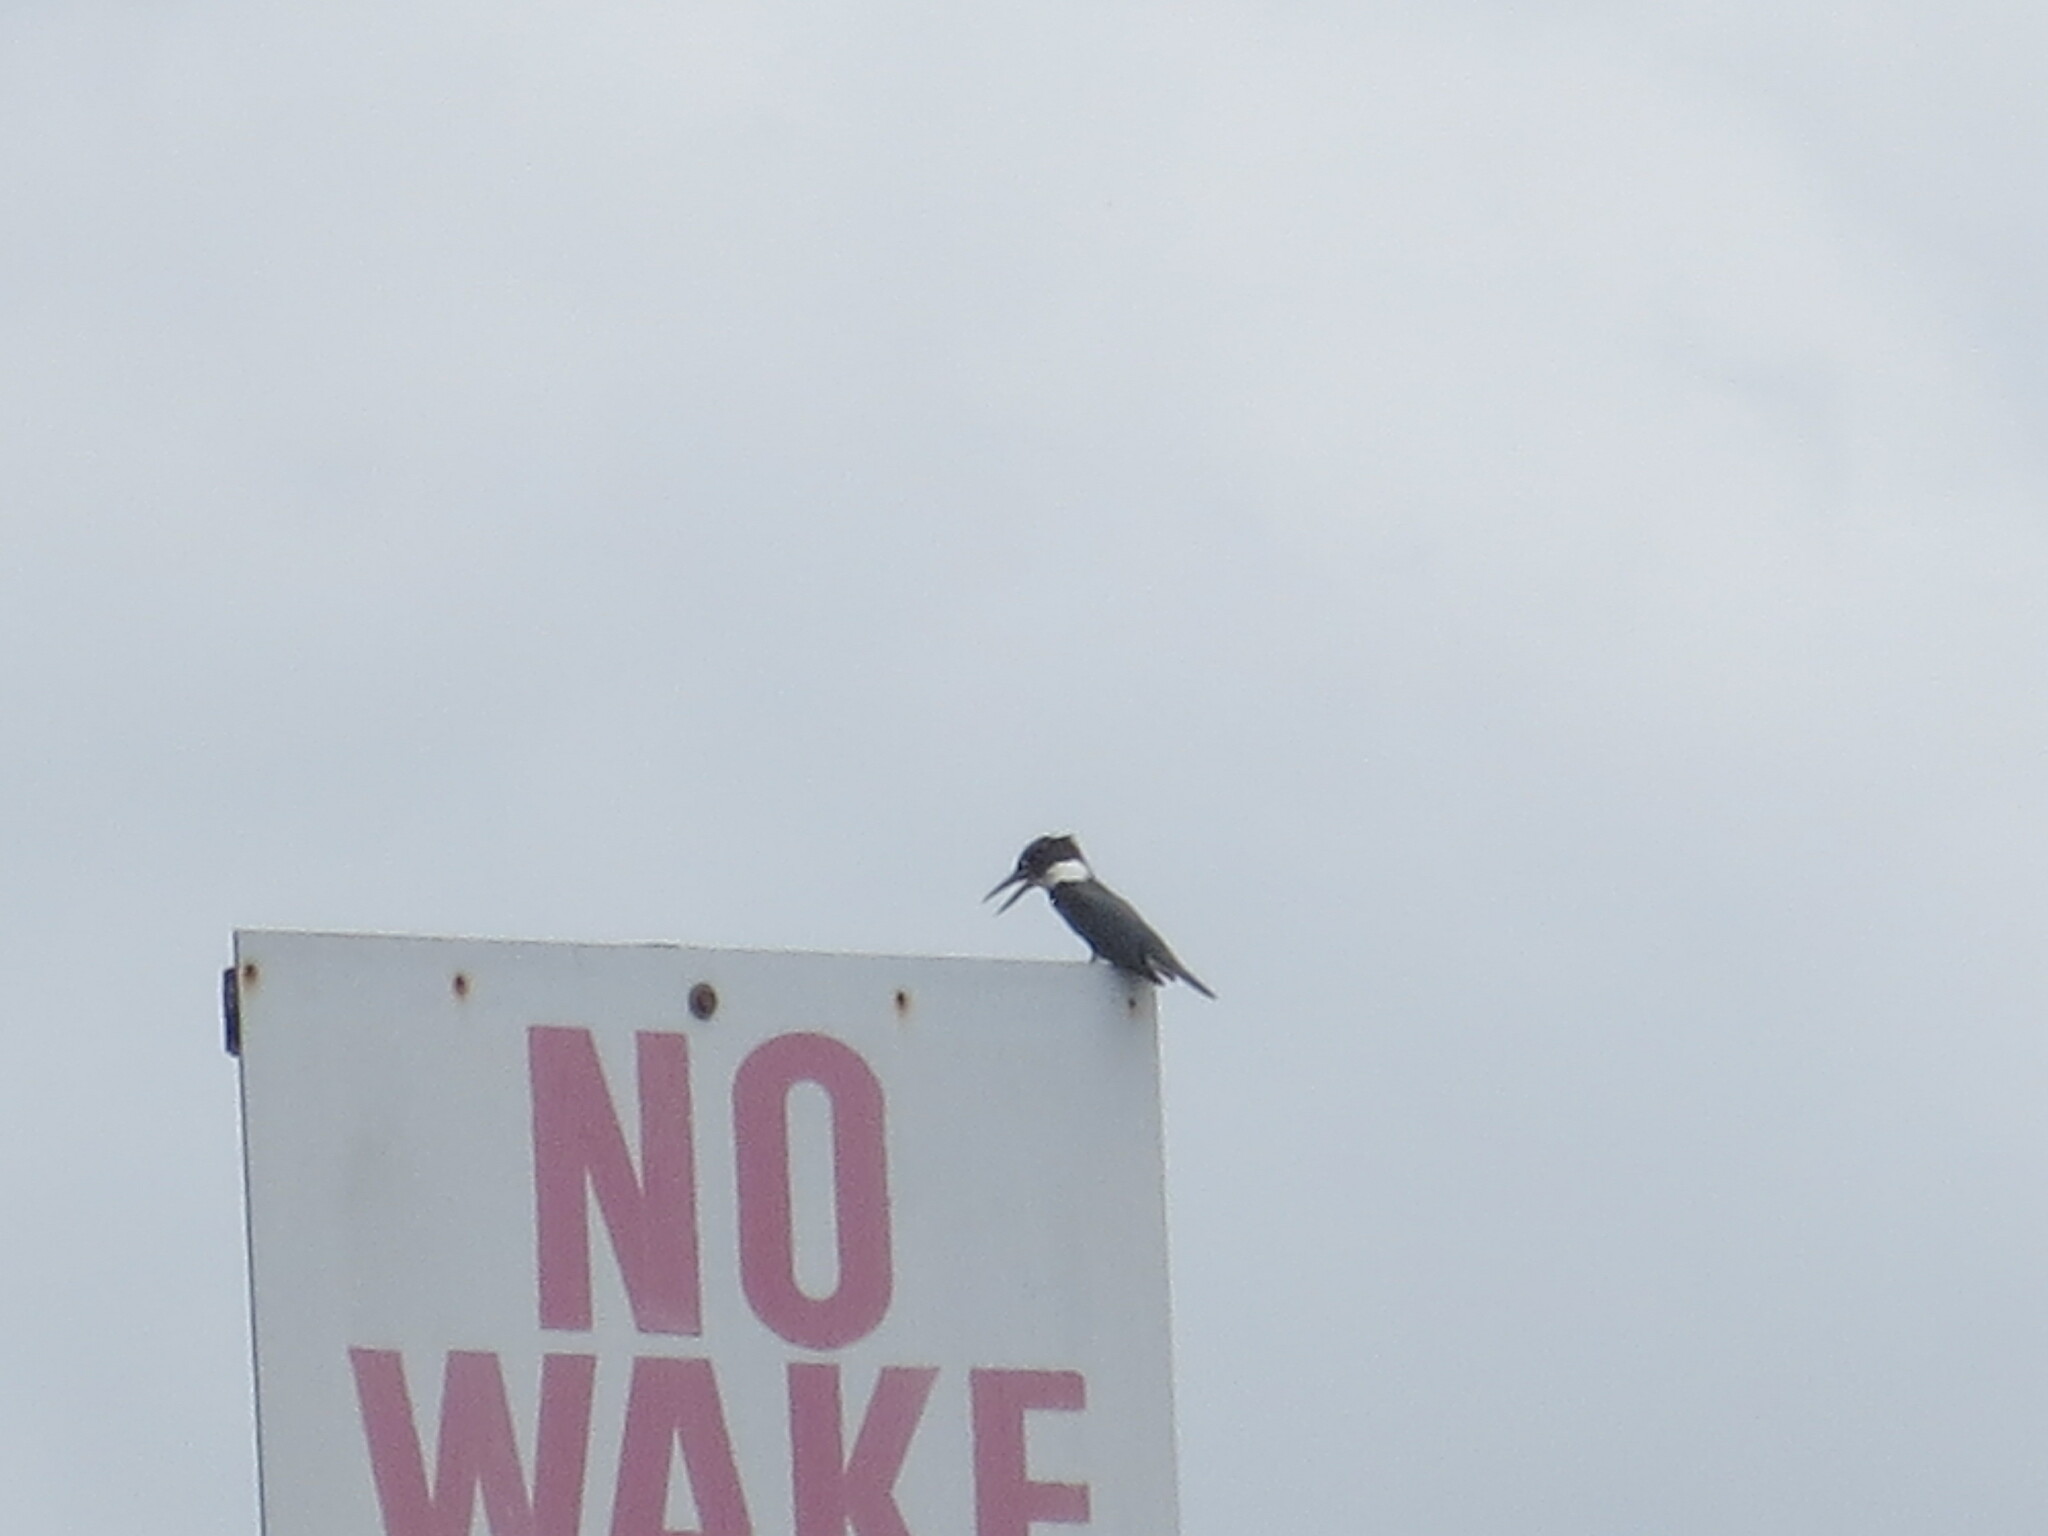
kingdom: Animalia
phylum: Chordata
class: Aves
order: Coraciiformes
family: Alcedinidae
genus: Megaceryle
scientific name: Megaceryle alcyon
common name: Belted kingfisher
